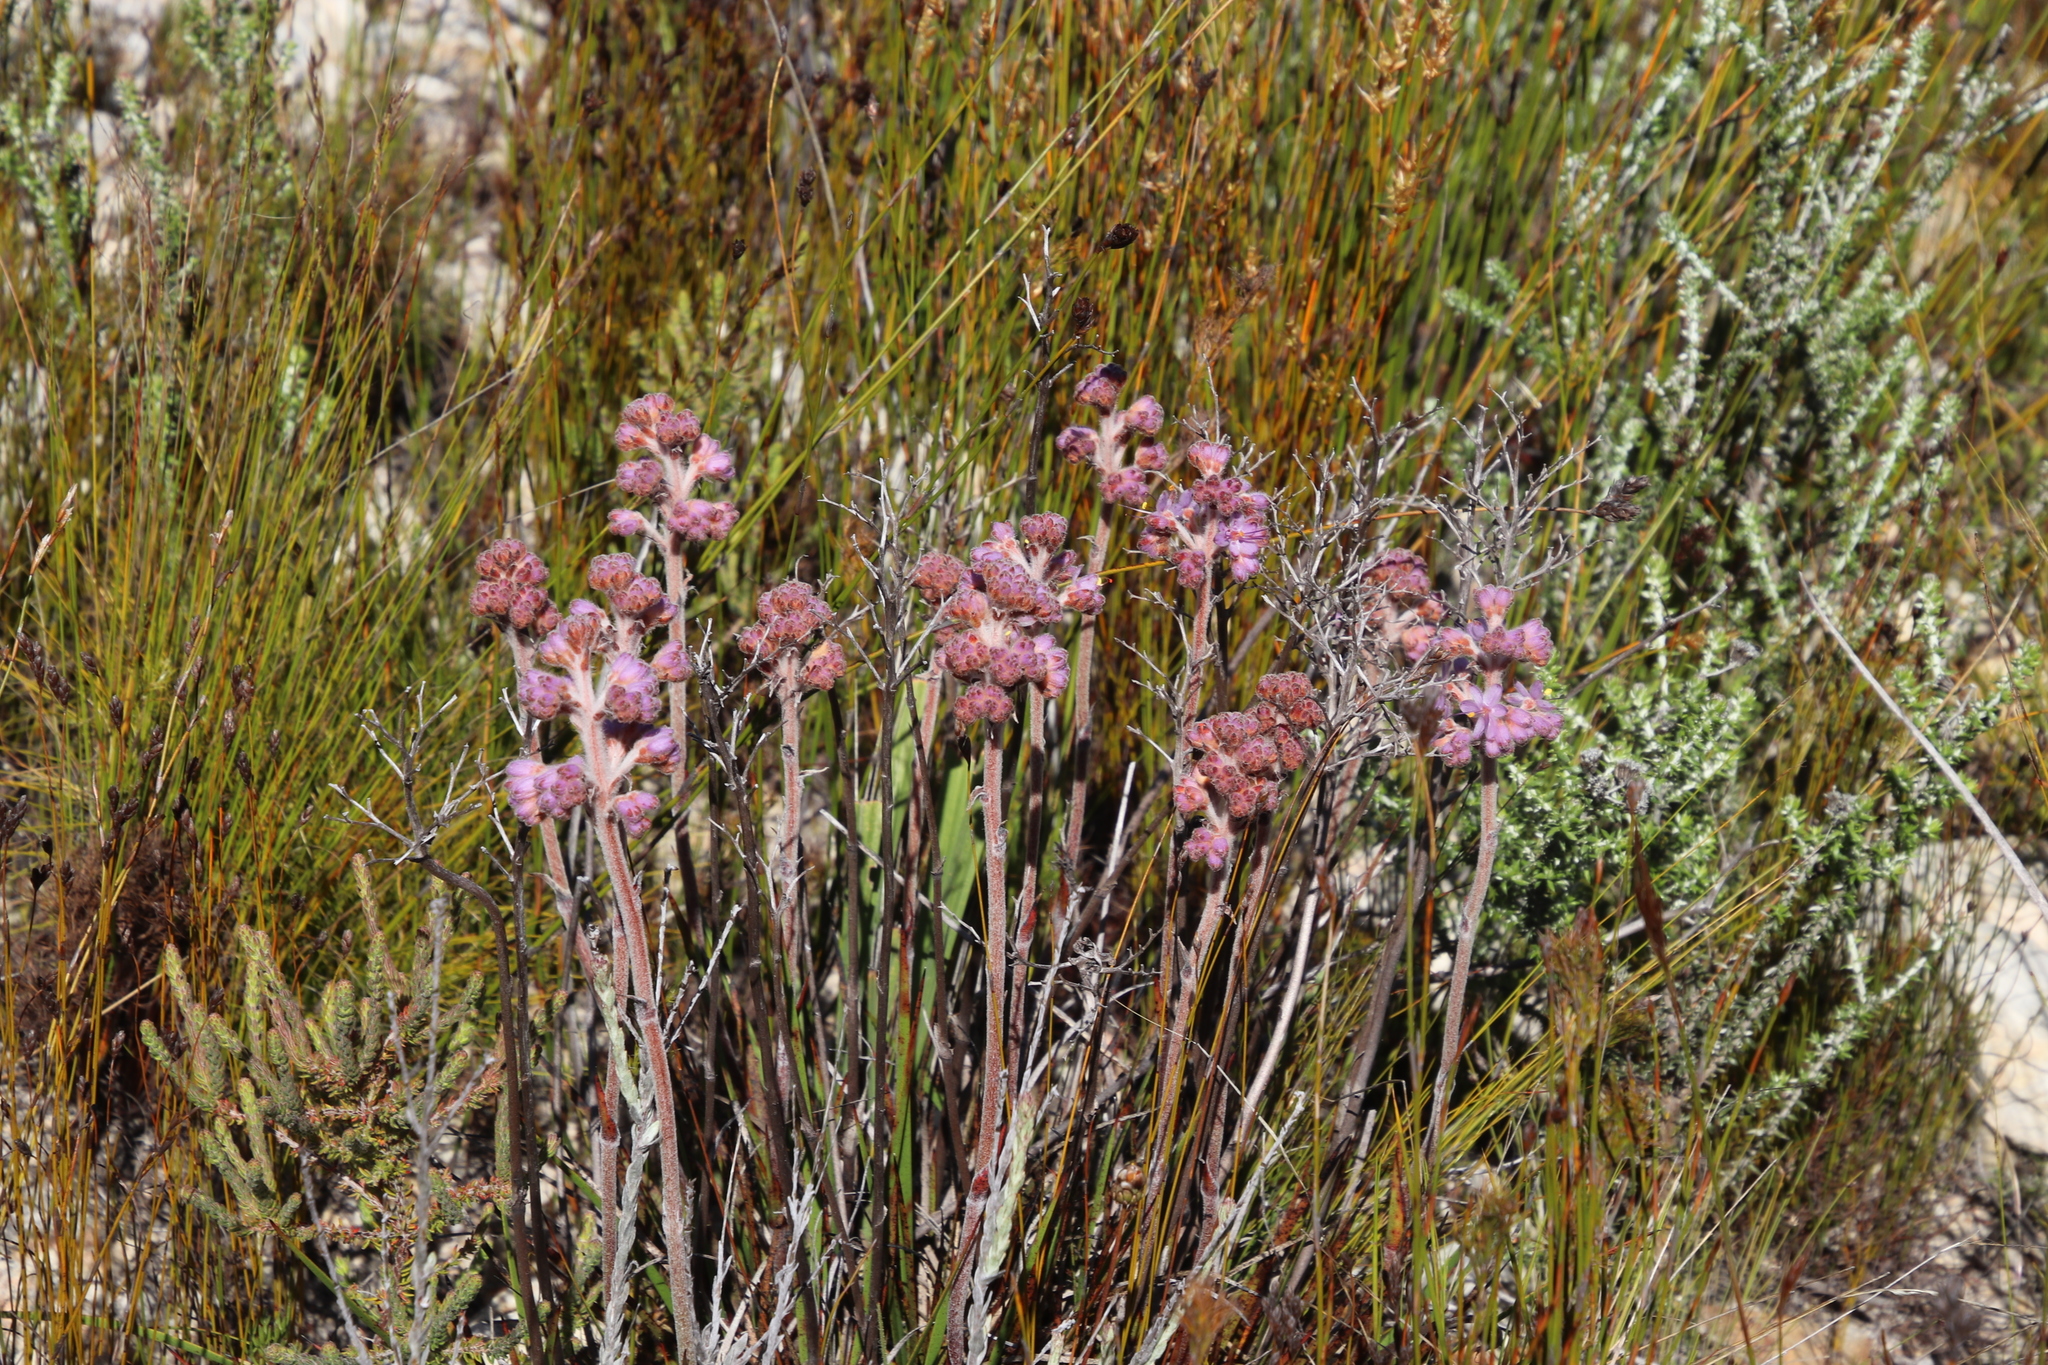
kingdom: Plantae
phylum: Tracheophyta
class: Liliopsida
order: Commelinales
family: Haemodoraceae
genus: Dilatris
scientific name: Dilatris ixioides
